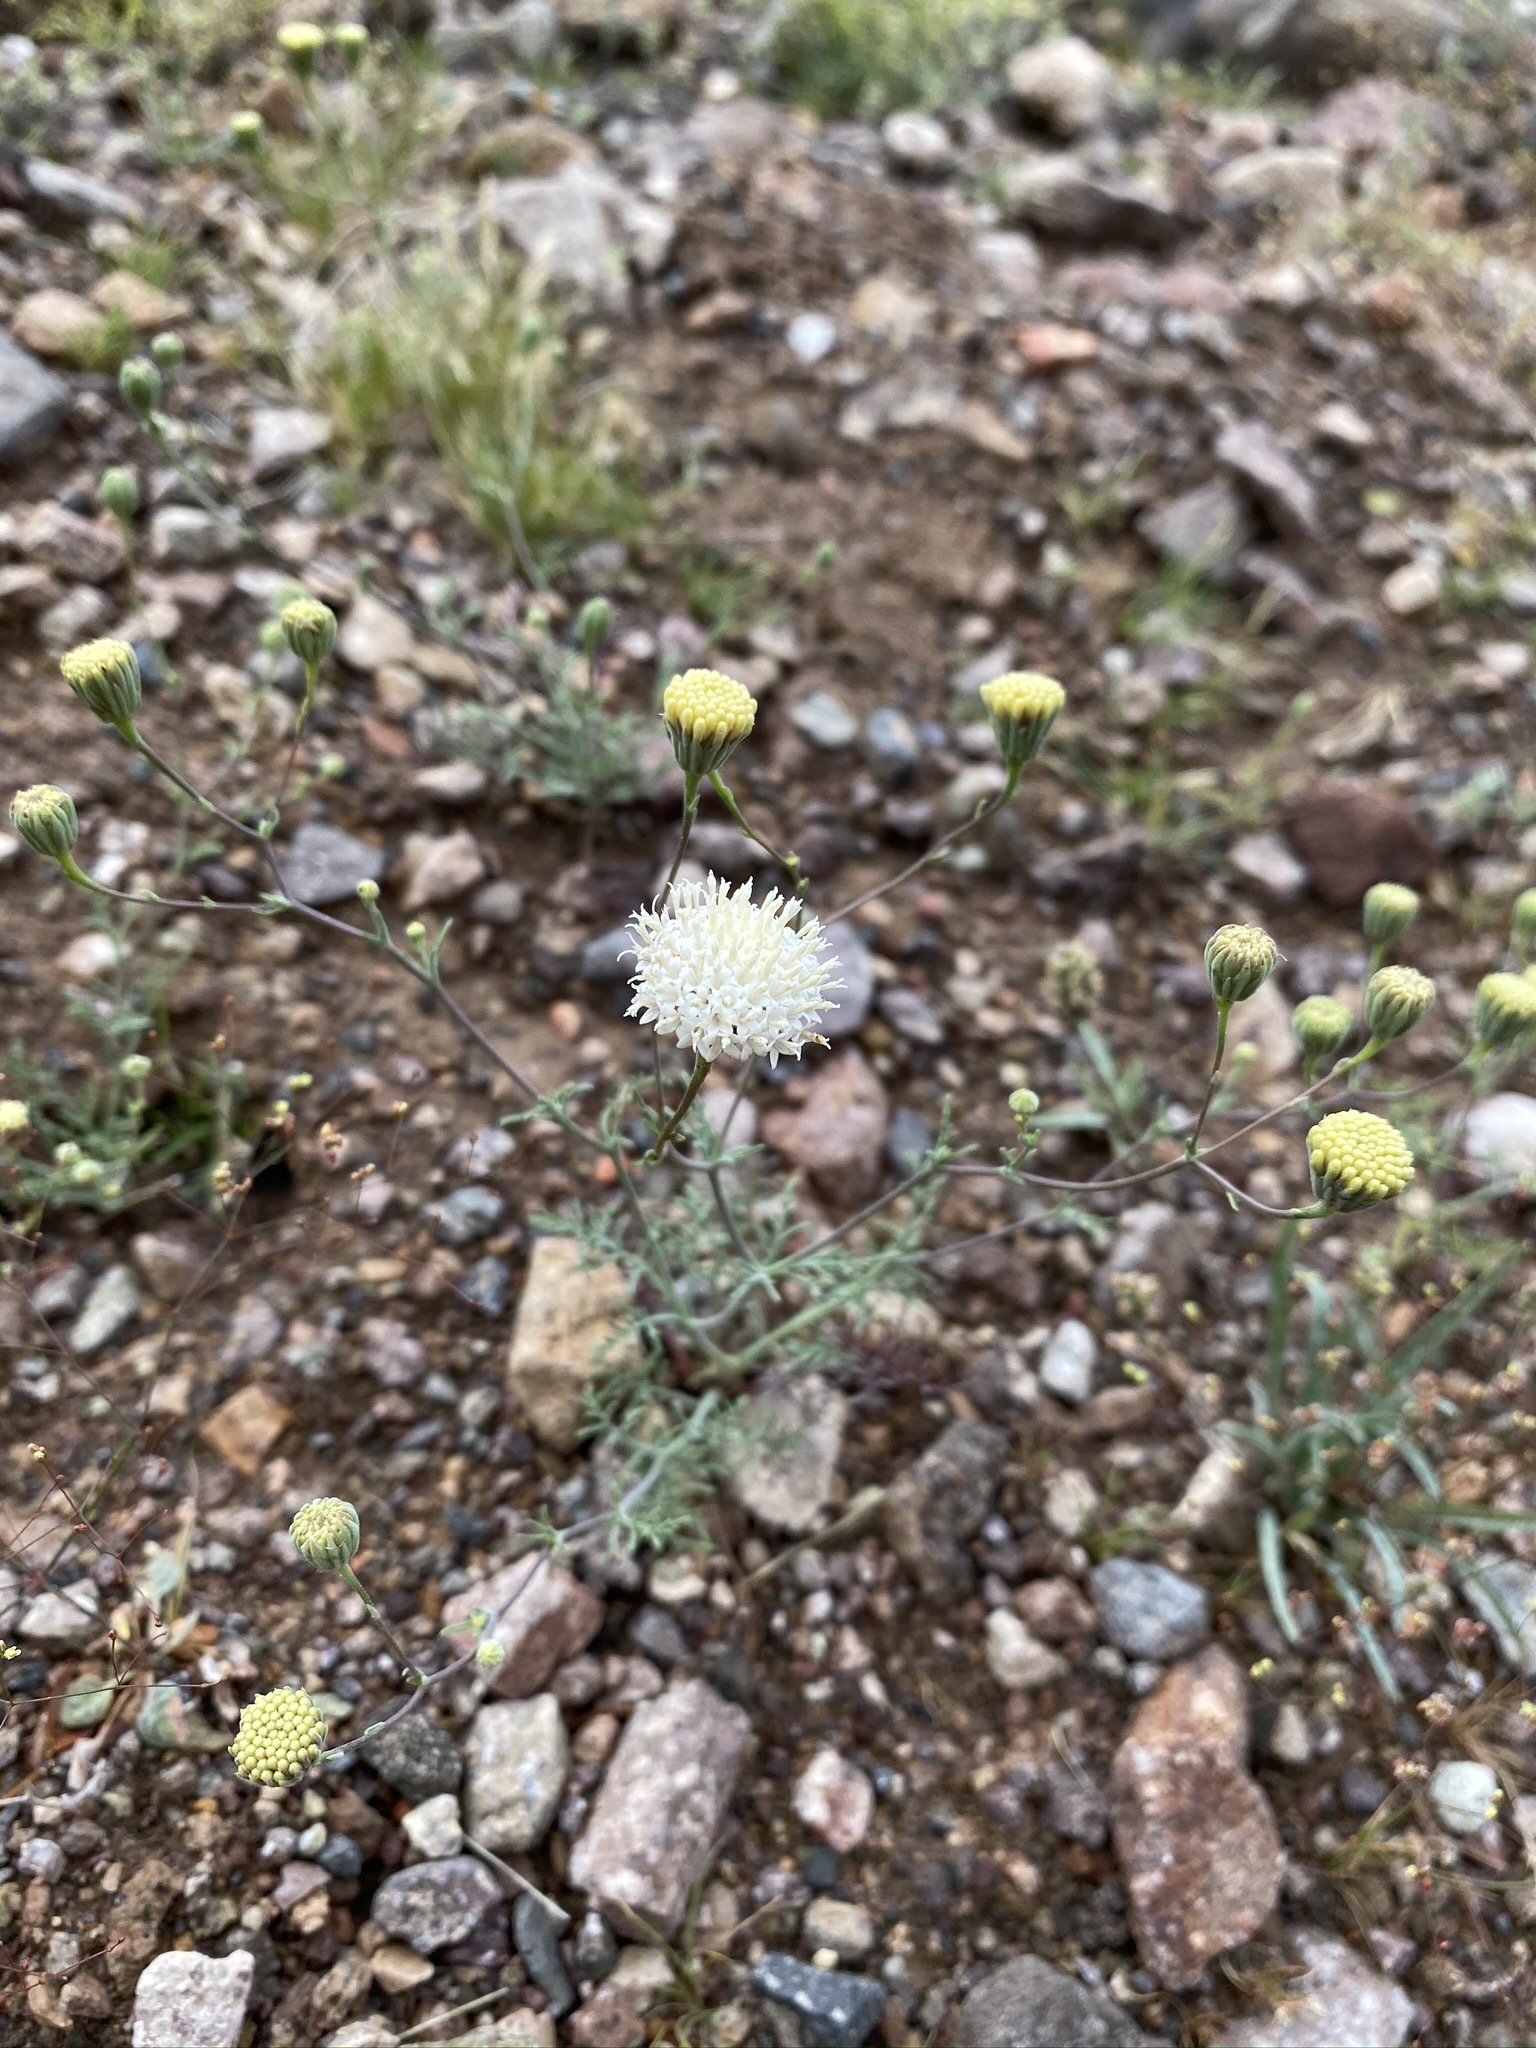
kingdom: Plantae
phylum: Tracheophyta
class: Magnoliopsida
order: Asterales
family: Asteraceae
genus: Chaenactis
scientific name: Chaenactis carphoclinia
